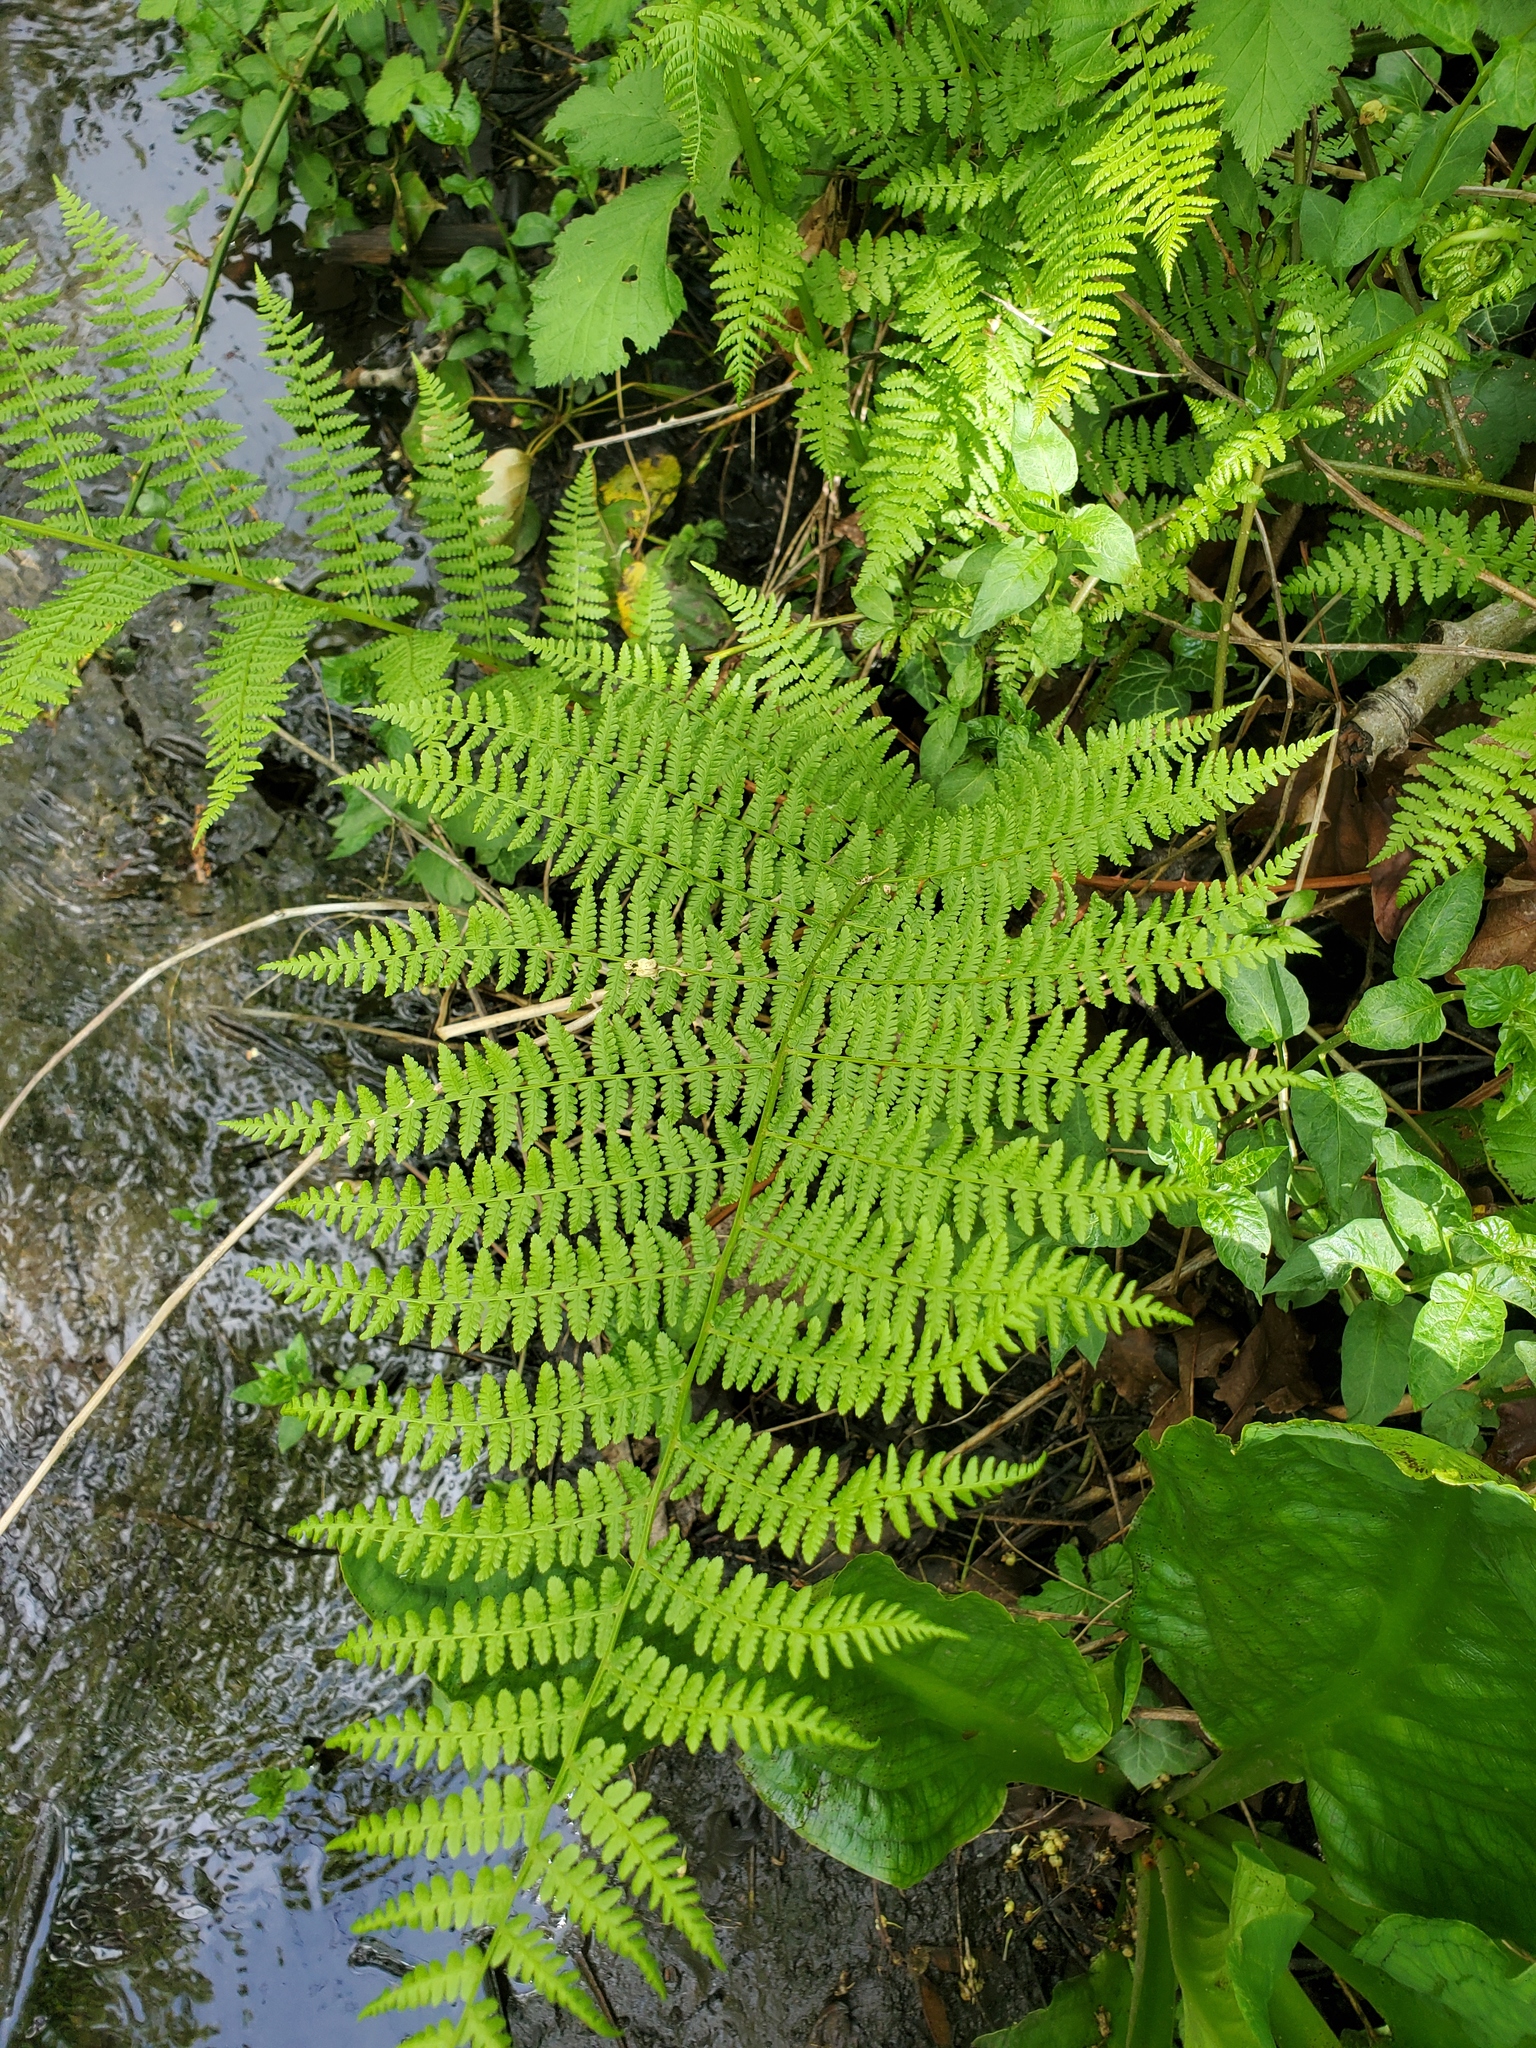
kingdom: Plantae
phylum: Tracheophyta
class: Polypodiopsida
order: Polypodiales
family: Athyriaceae
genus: Athyrium
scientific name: Athyrium filix-femina
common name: Lady fern
